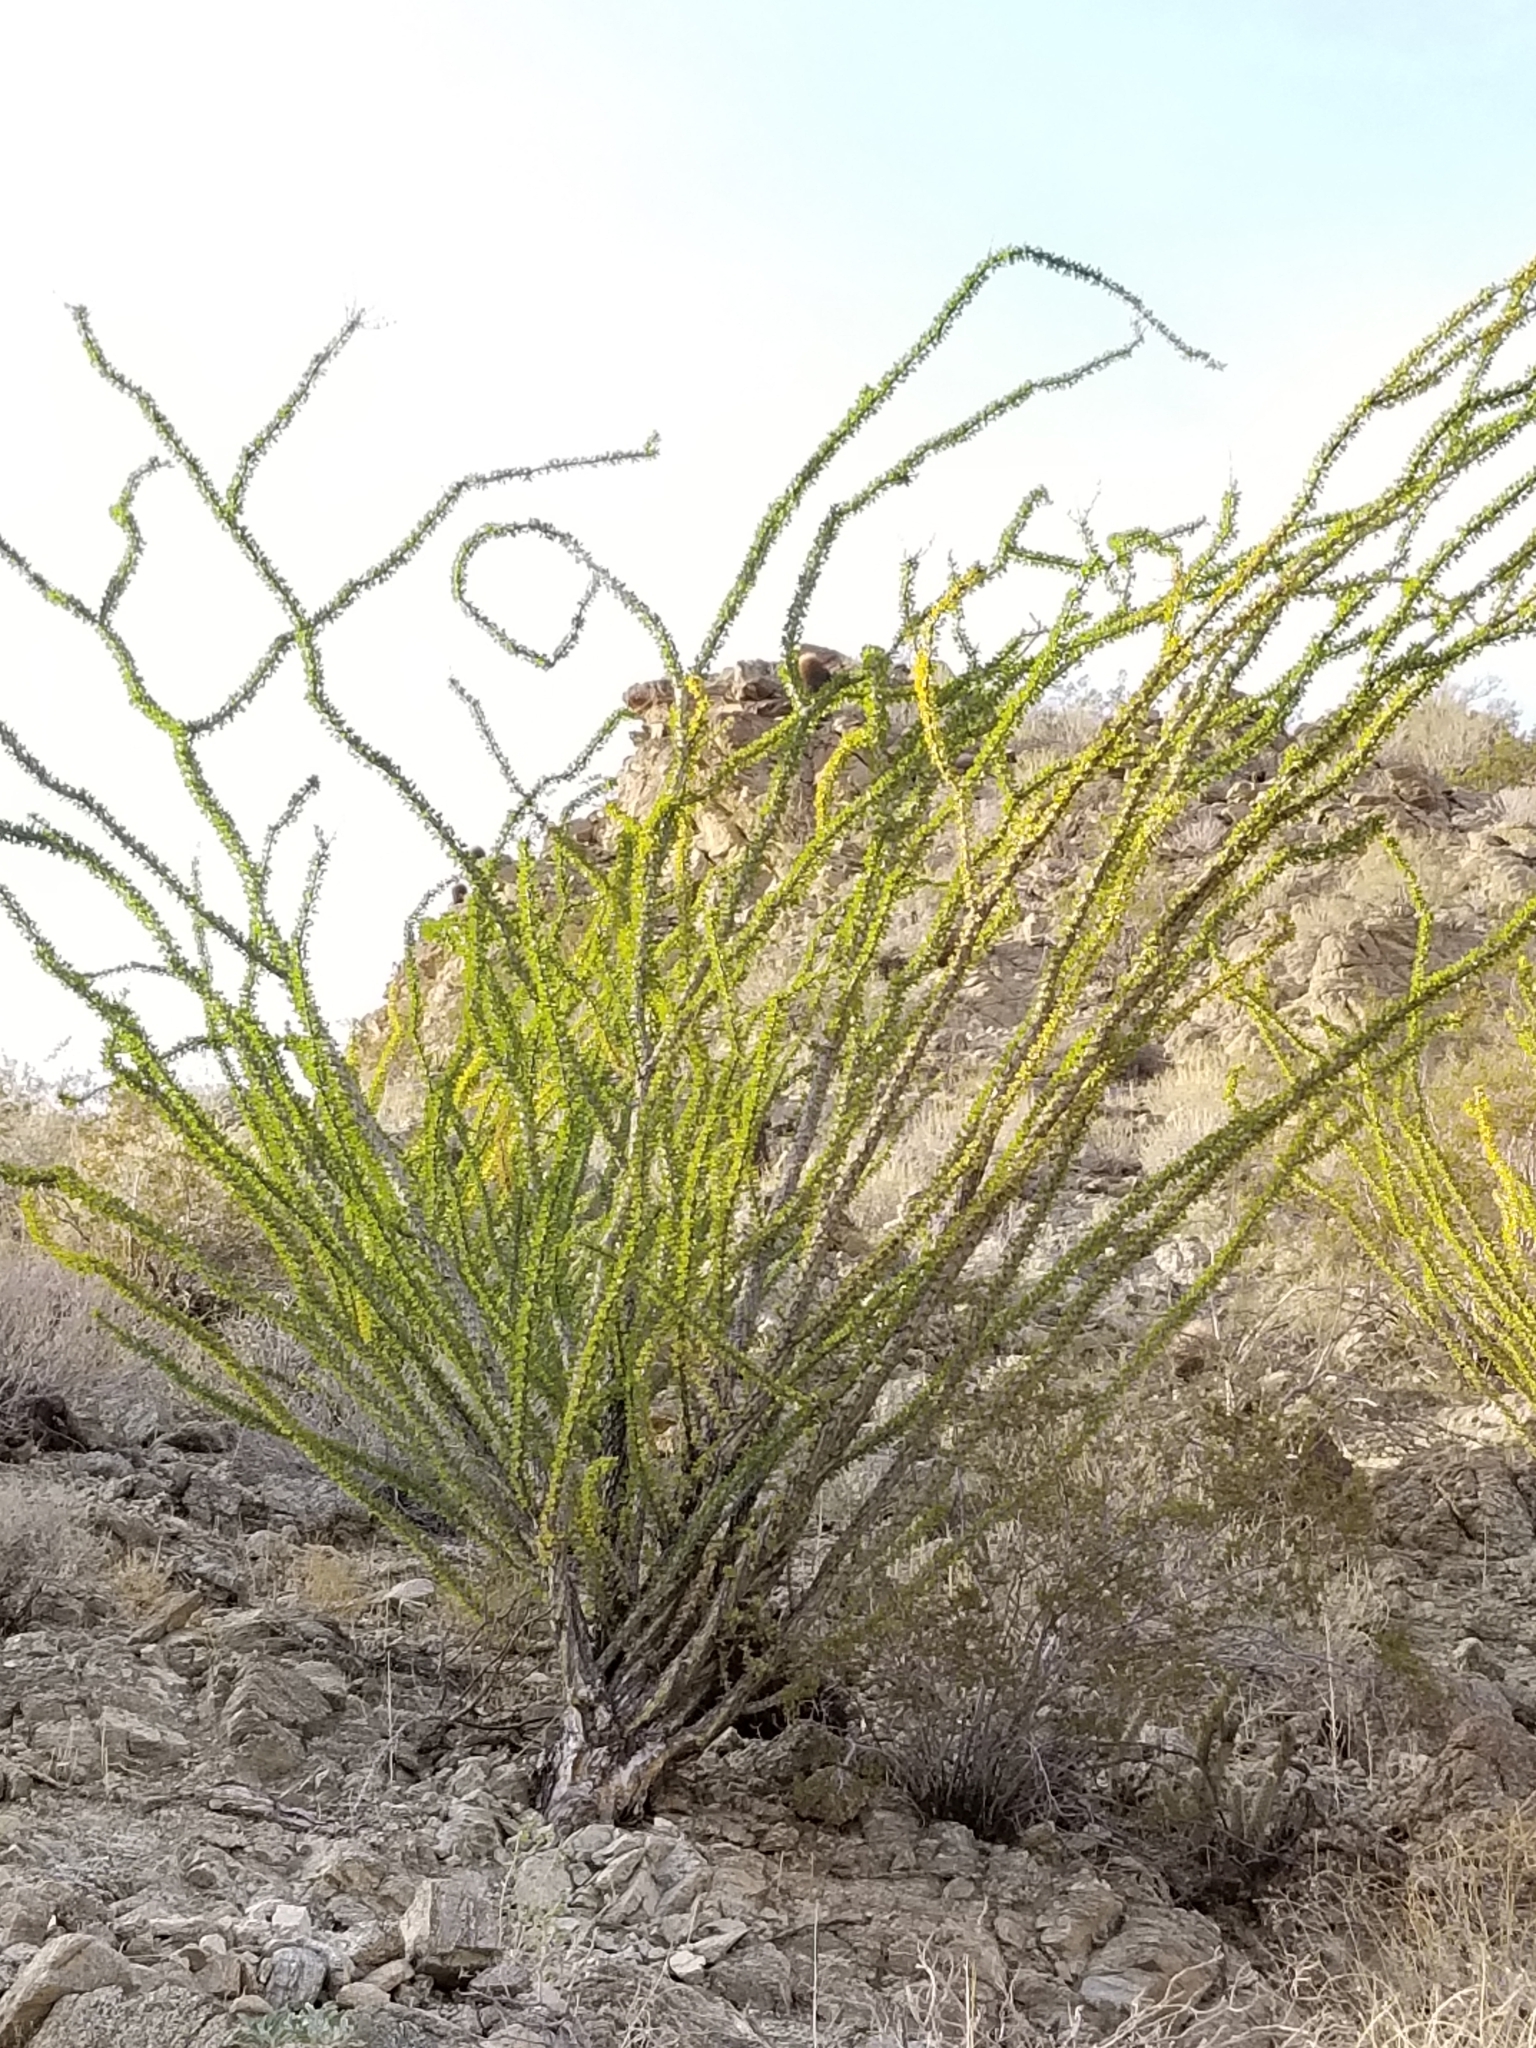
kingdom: Plantae
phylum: Tracheophyta
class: Magnoliopsida
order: Ericales
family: Fouquieriaceae
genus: Fouquieria
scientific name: Fouquieria splendens
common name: Vine-cactus
